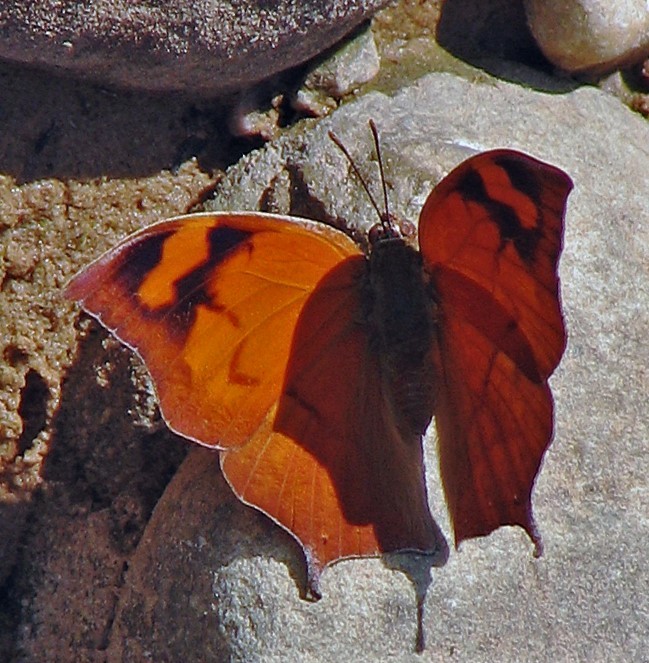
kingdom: Animalia
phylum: Arthropoda
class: Insecta
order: Lepidoptera
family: Nymphalidae
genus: Fountainea
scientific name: Fountainea
